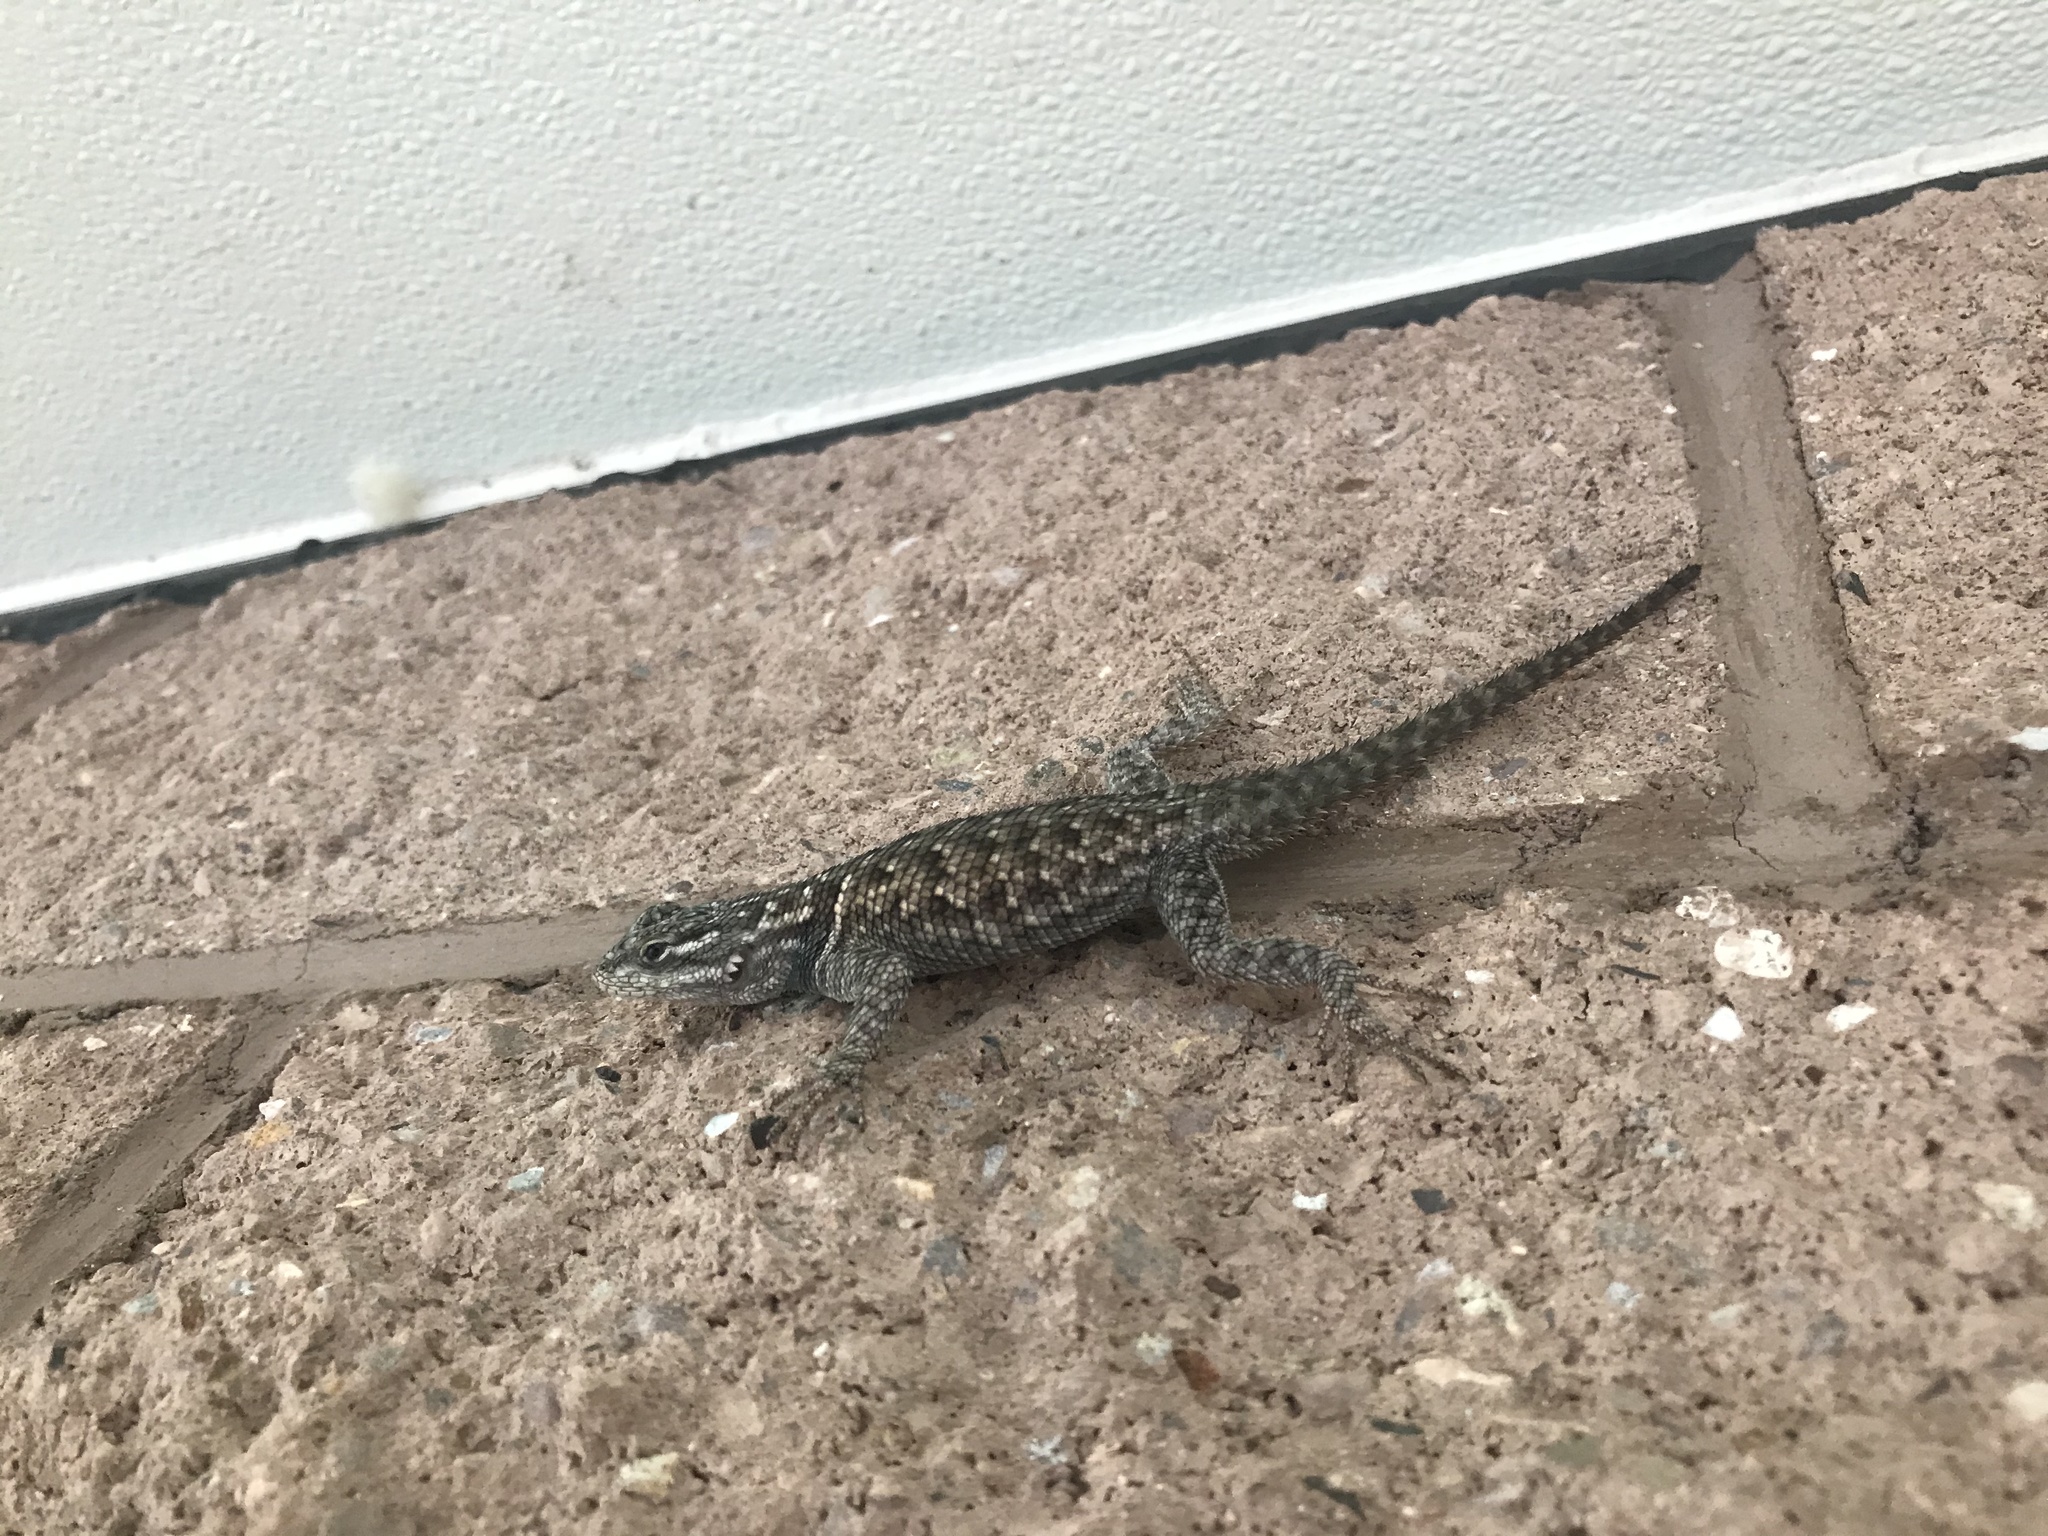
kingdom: Animalia
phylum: Chordata
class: Squamata
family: Phrynosomatidae
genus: Sceloporus
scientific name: Sceloporus jarrovii
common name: Yarrow's spiny lizard
